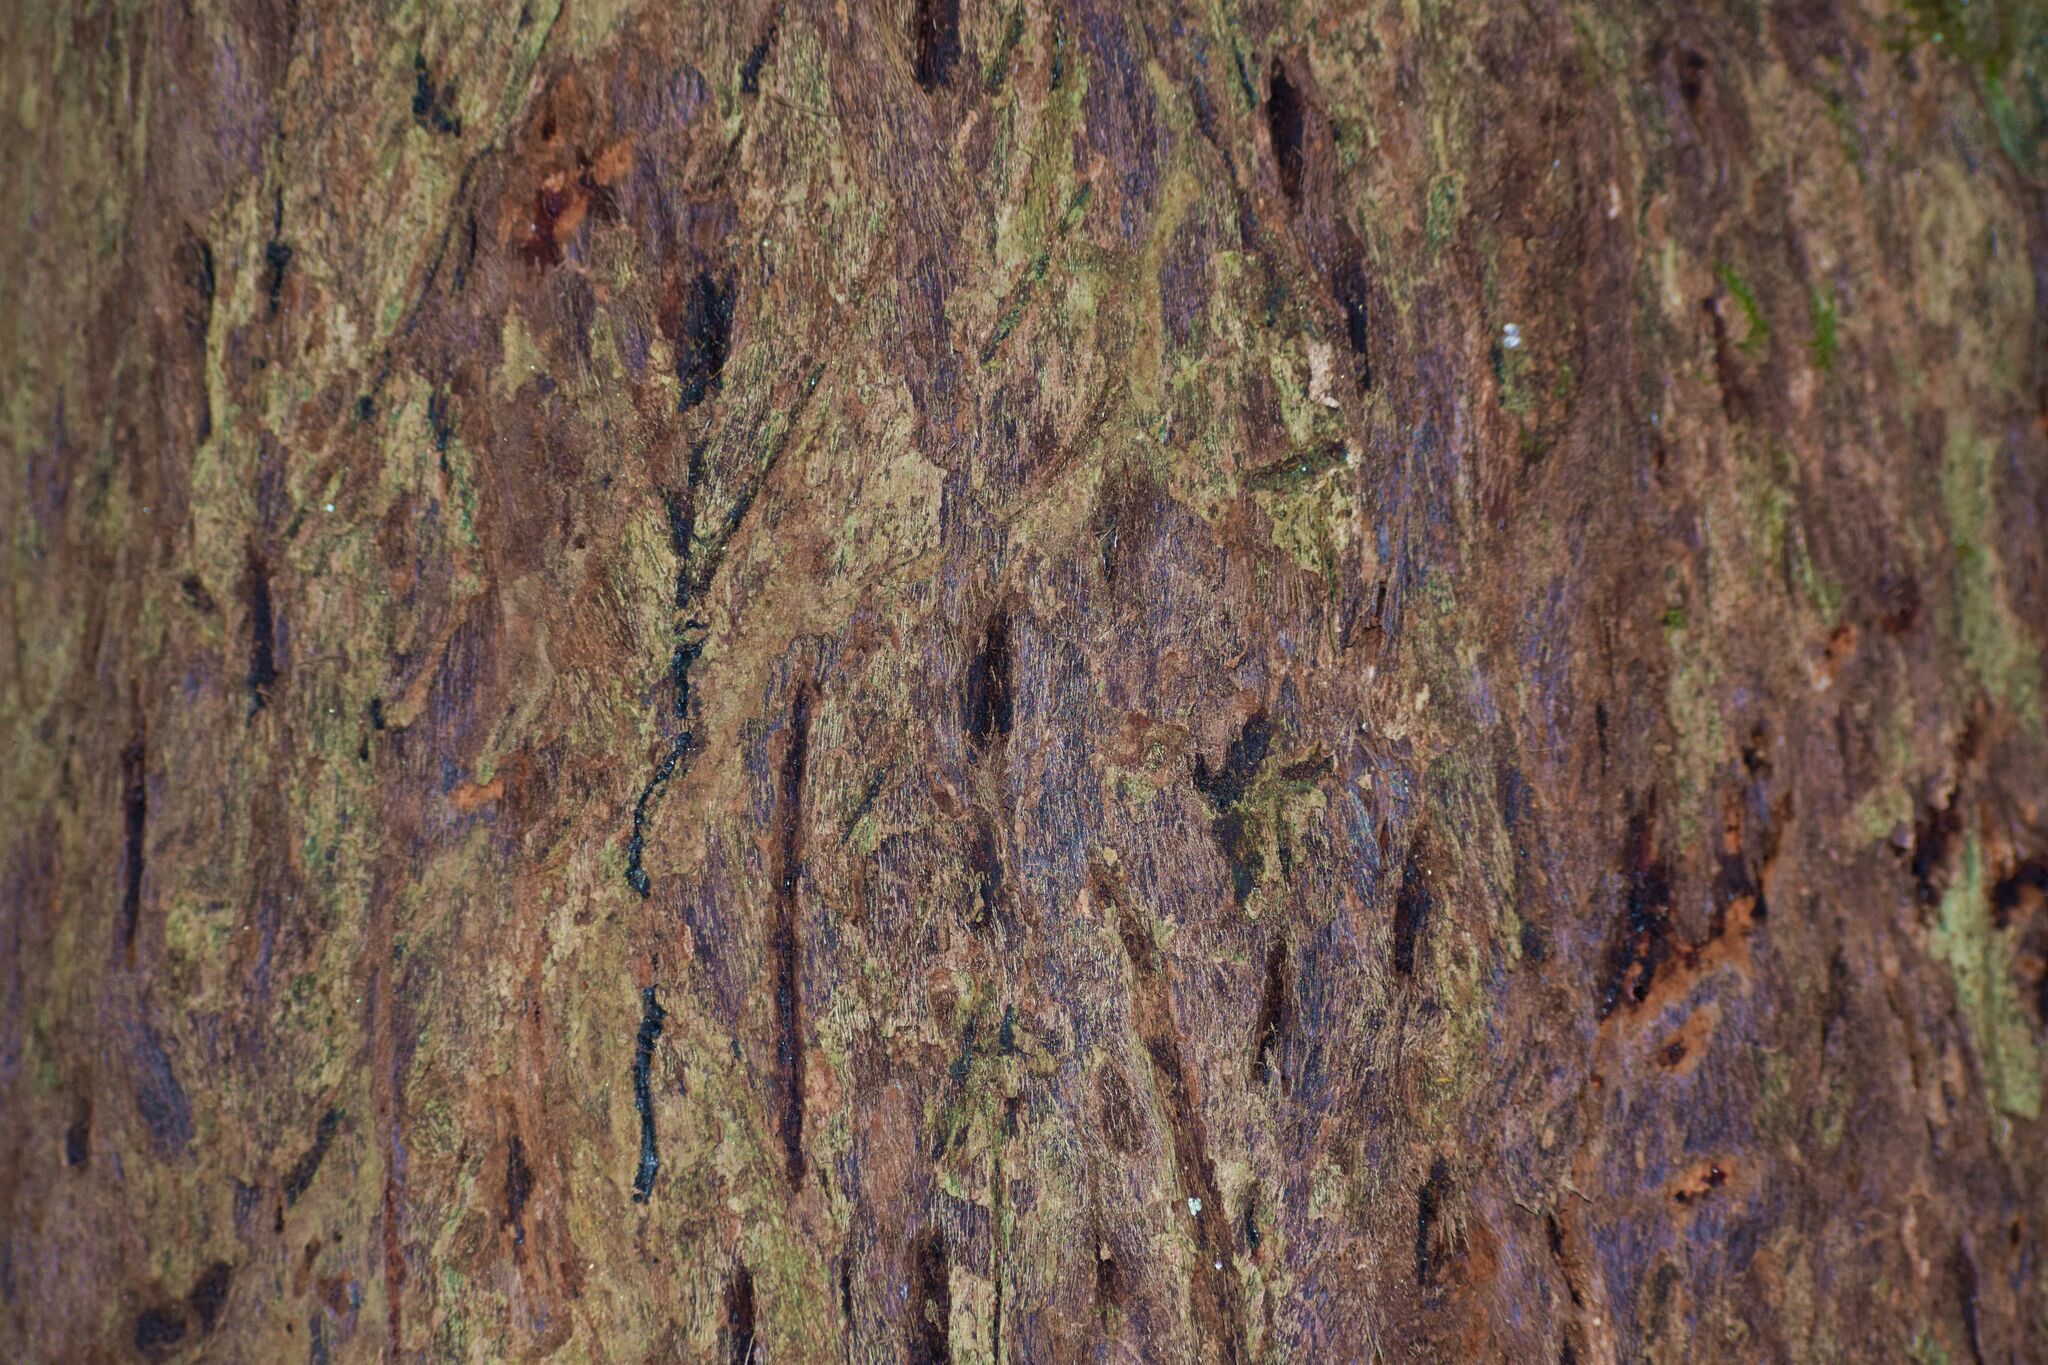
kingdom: Animalia
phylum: Chordata
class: Mammalia
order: Carnivora
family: Felidae
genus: Panthera
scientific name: Panthera tigris
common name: Tiger
